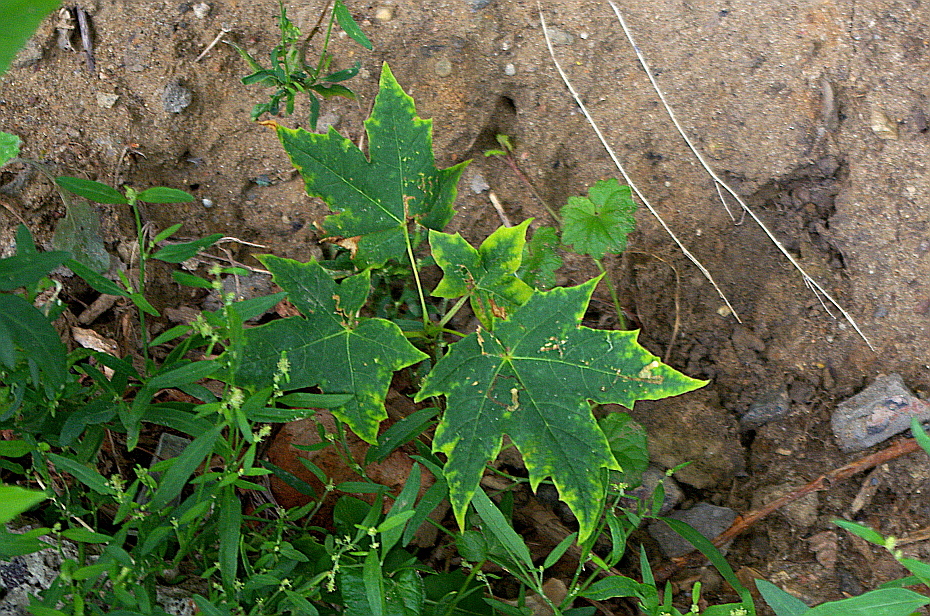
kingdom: Plantae
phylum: Tracheophyta
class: Magnoliopsida
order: Sapindales
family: Sapindaceae
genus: Acer
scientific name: Acer platanoides
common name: Norway maple
